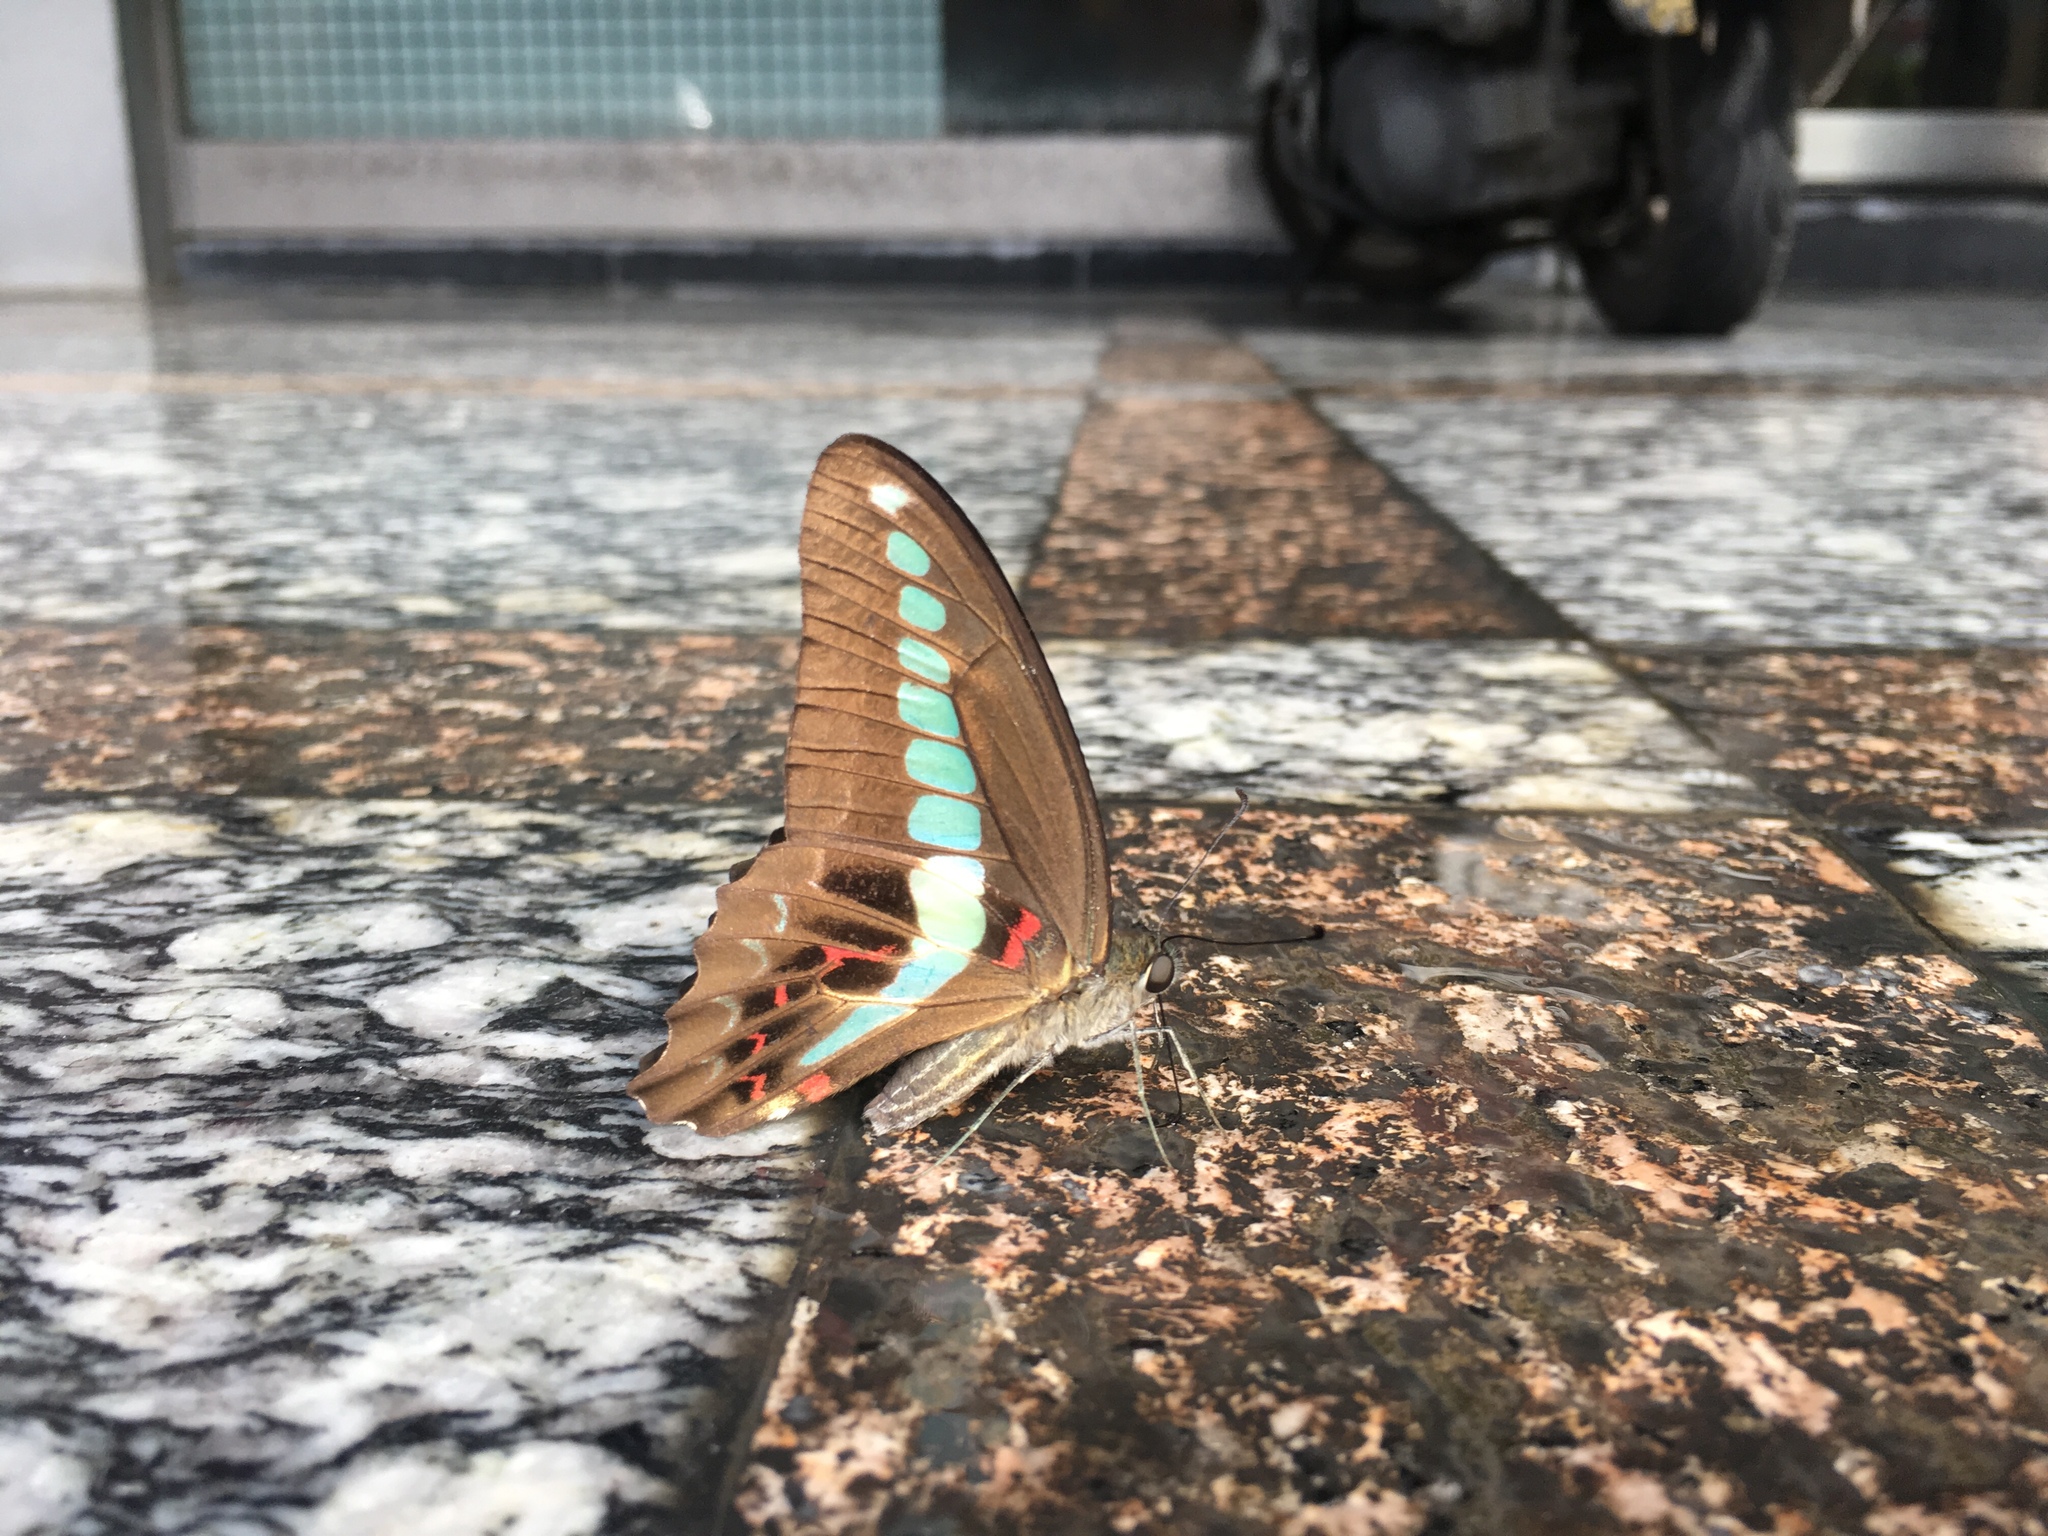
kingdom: Fungi
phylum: Ascomycota
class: Sordariomycetes
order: Microascales
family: Microascaceae
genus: Graphium
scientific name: Graphium sarpedon
